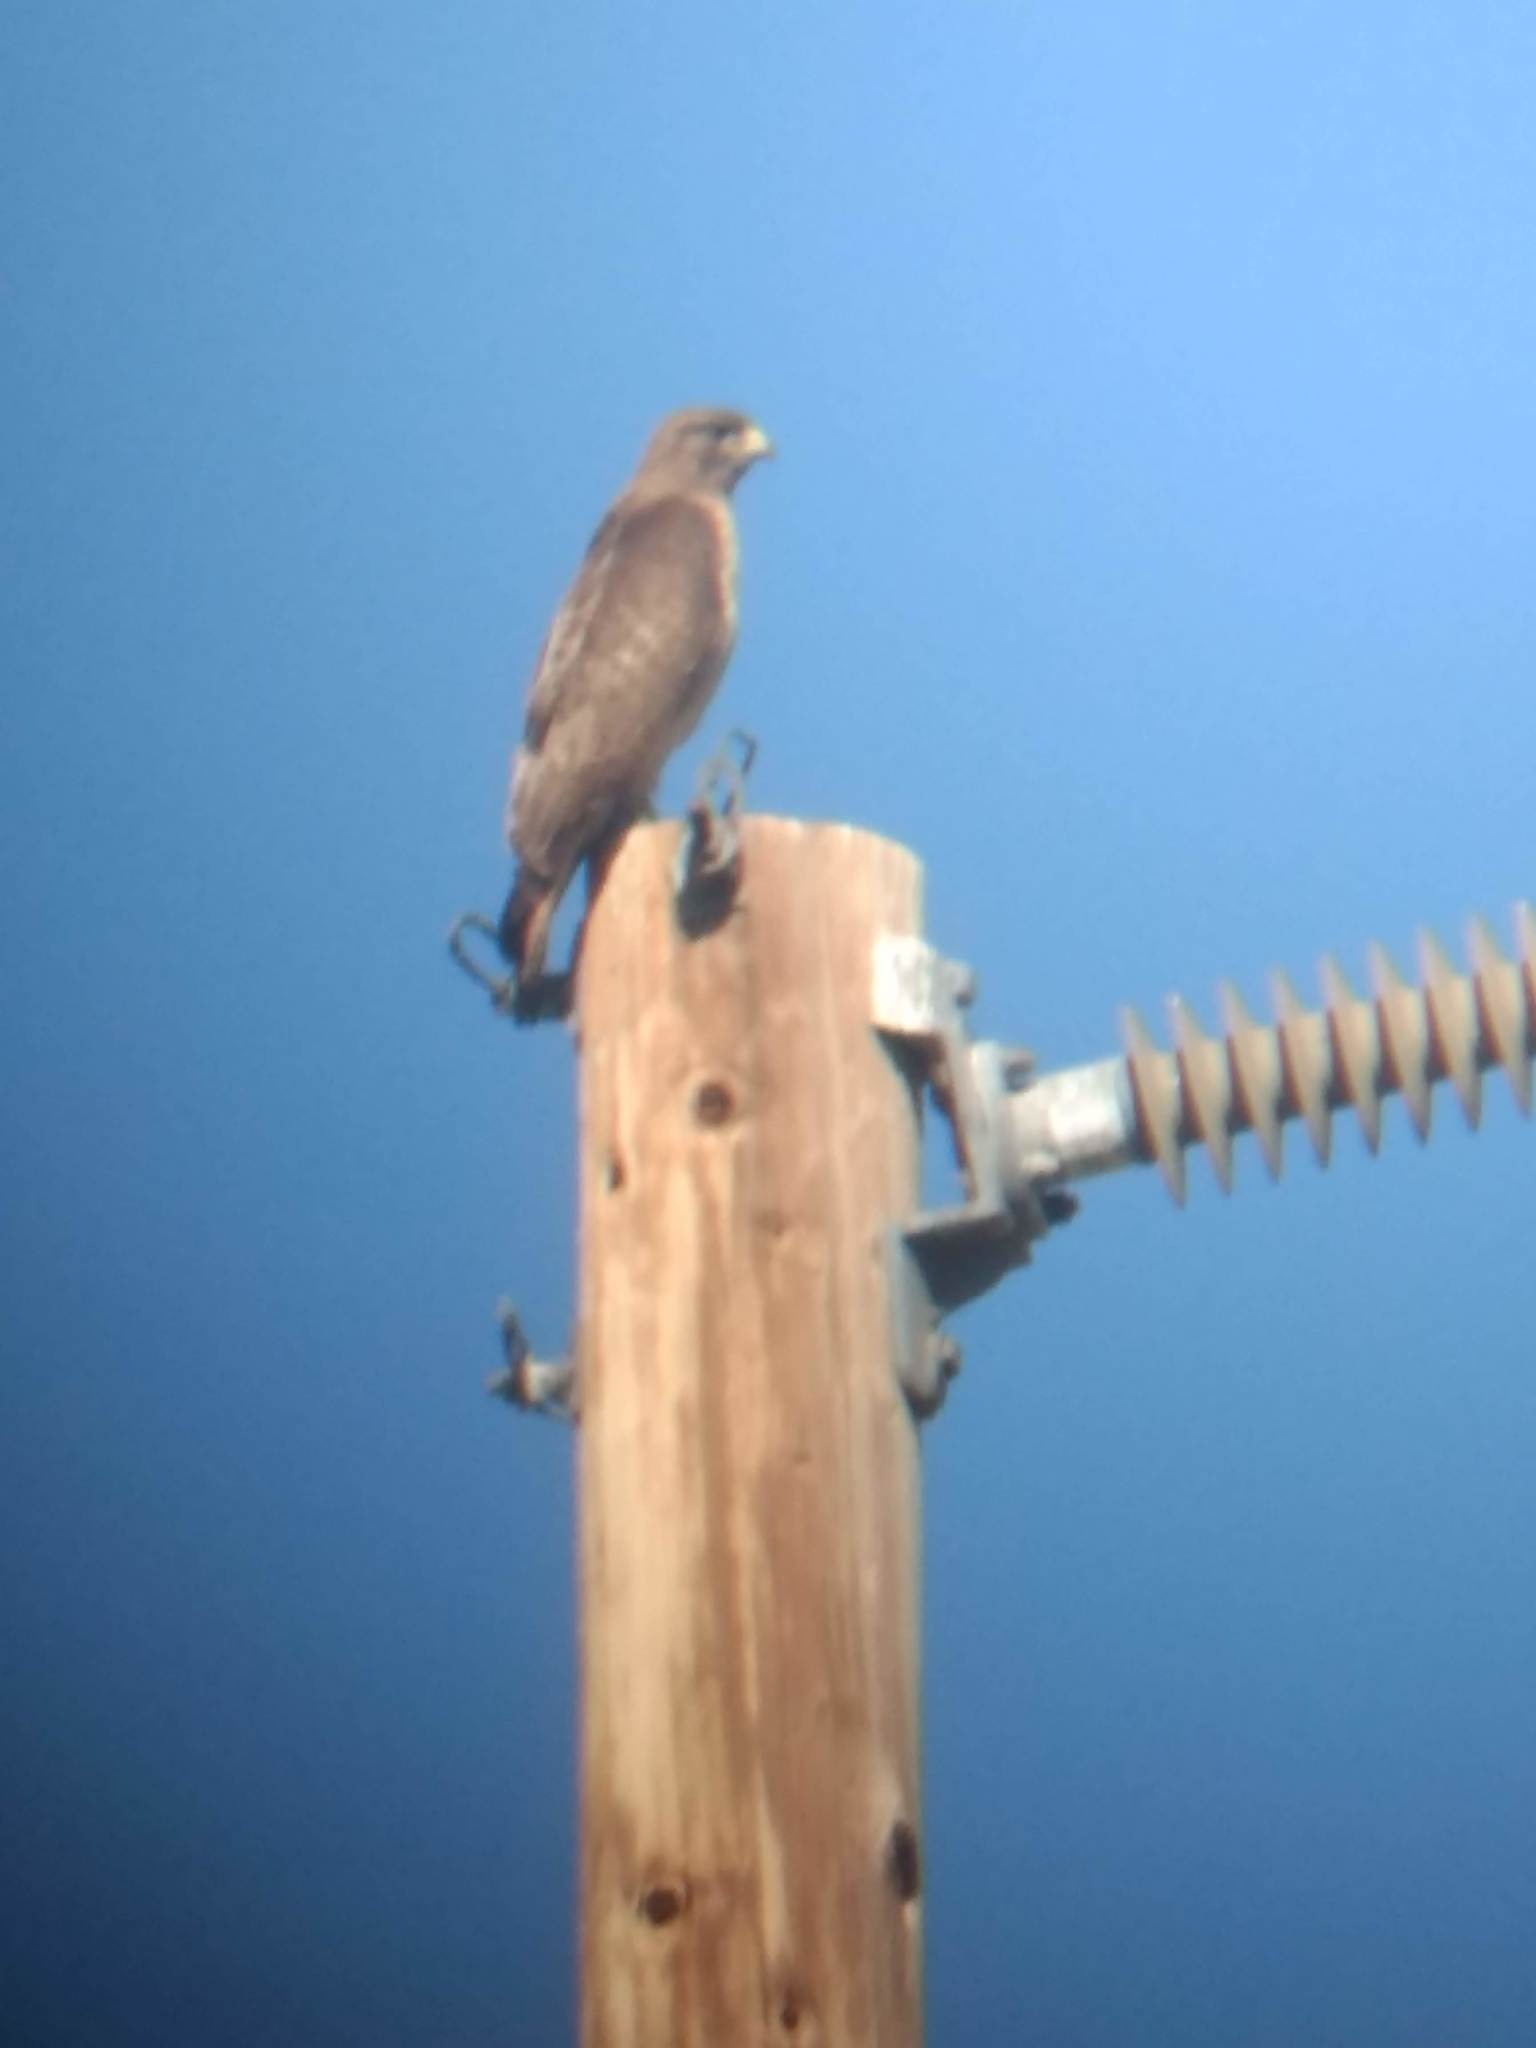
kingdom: Animalia
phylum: Chordata
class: Aves
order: Accipitriformes
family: Accipitridae
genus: Buteo
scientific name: Buteo jamaicensis
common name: Red-tailed hawk
